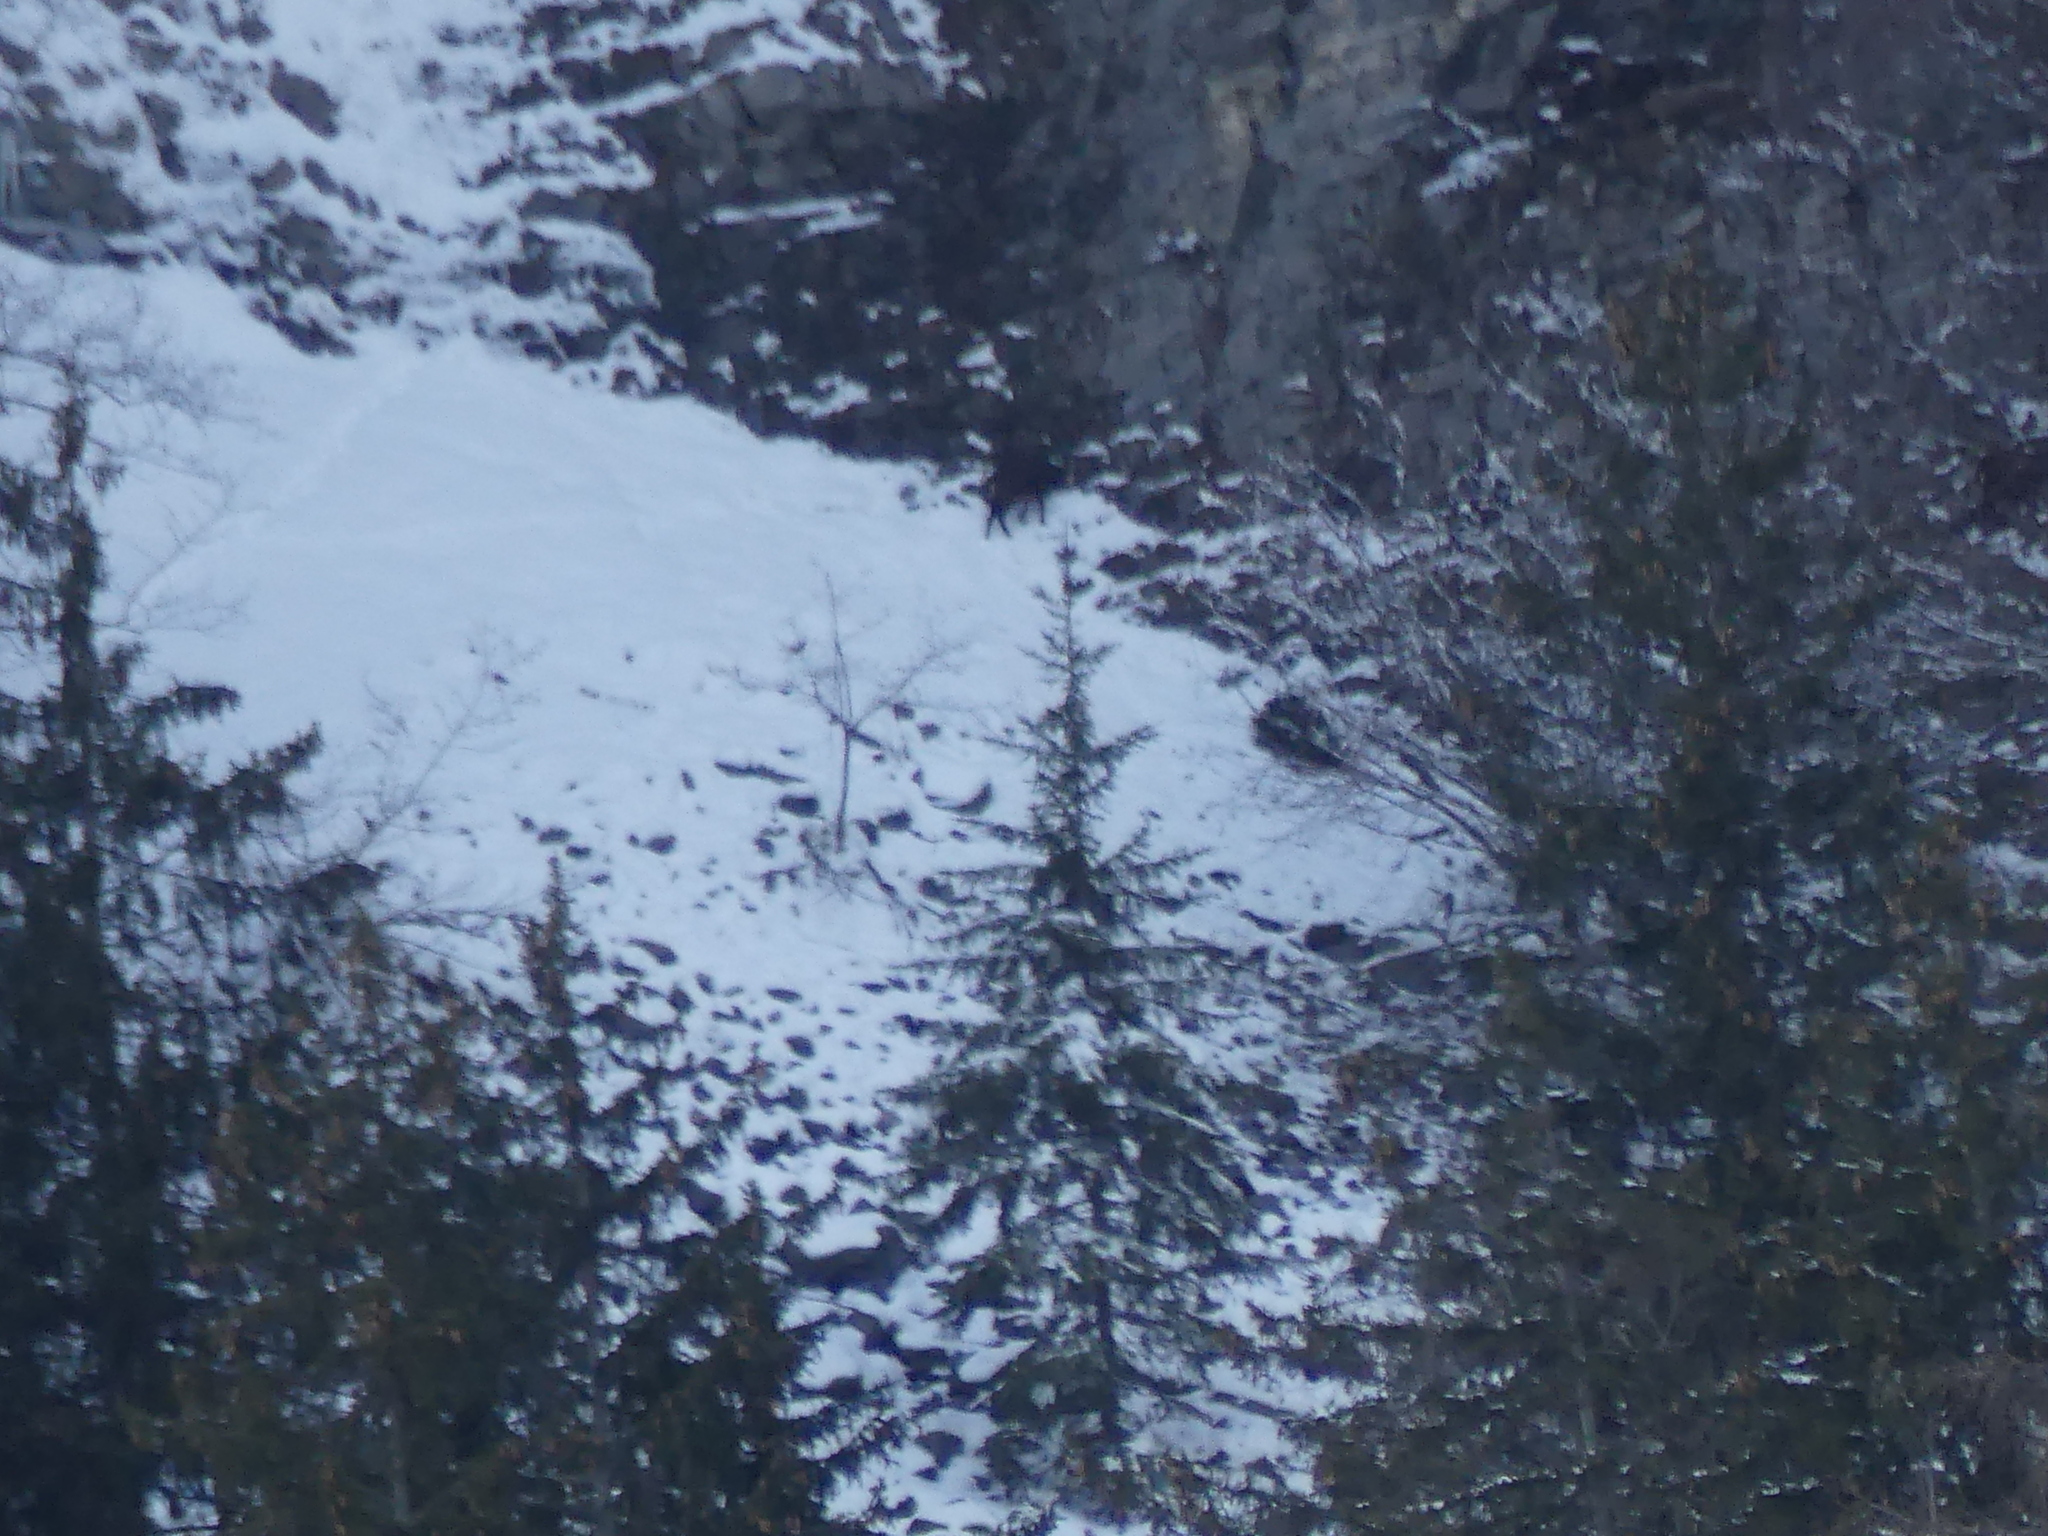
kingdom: Animalia
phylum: Chordata
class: Mammalia
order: Artiodactyla
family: Bovidae
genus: Rupicapra
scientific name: Rupicapra rupicapra
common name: Chamois
